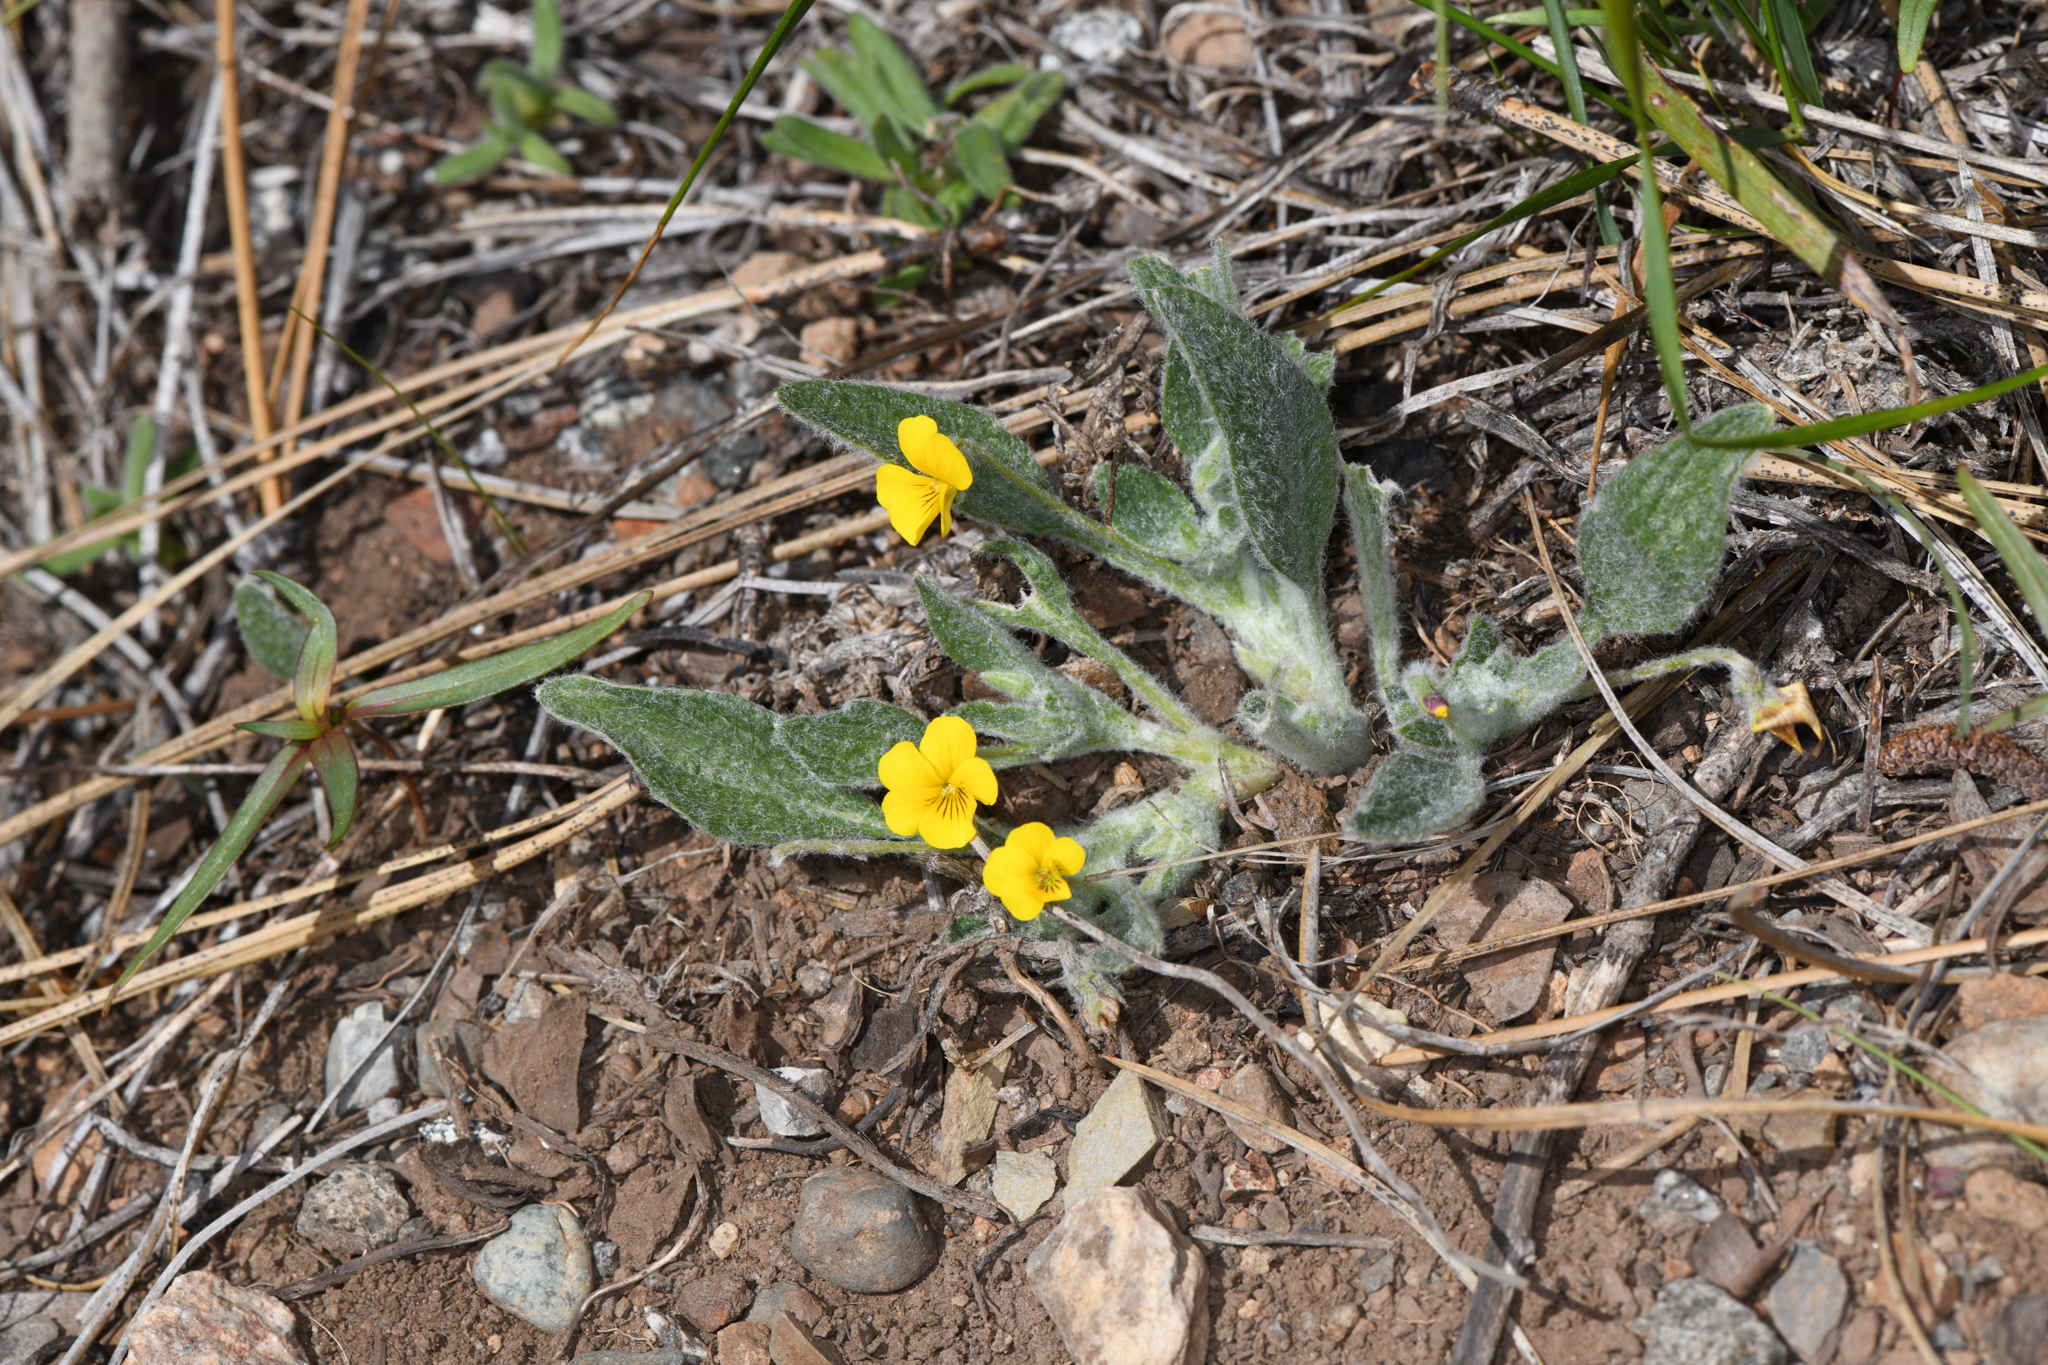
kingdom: Plantae
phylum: Tracheophyta
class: Magnoliopsida
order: Malpighiales
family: Violaceae
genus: Viola
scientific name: Viola tomentosa
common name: Woolly violet
